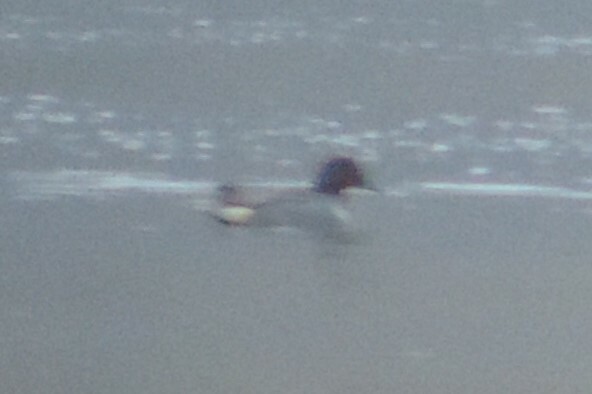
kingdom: Animalia
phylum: Chordata
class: Aves
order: Anseriformes
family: Anatidae
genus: Anas
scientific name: Anas carolinensis
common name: Green-winged teal
